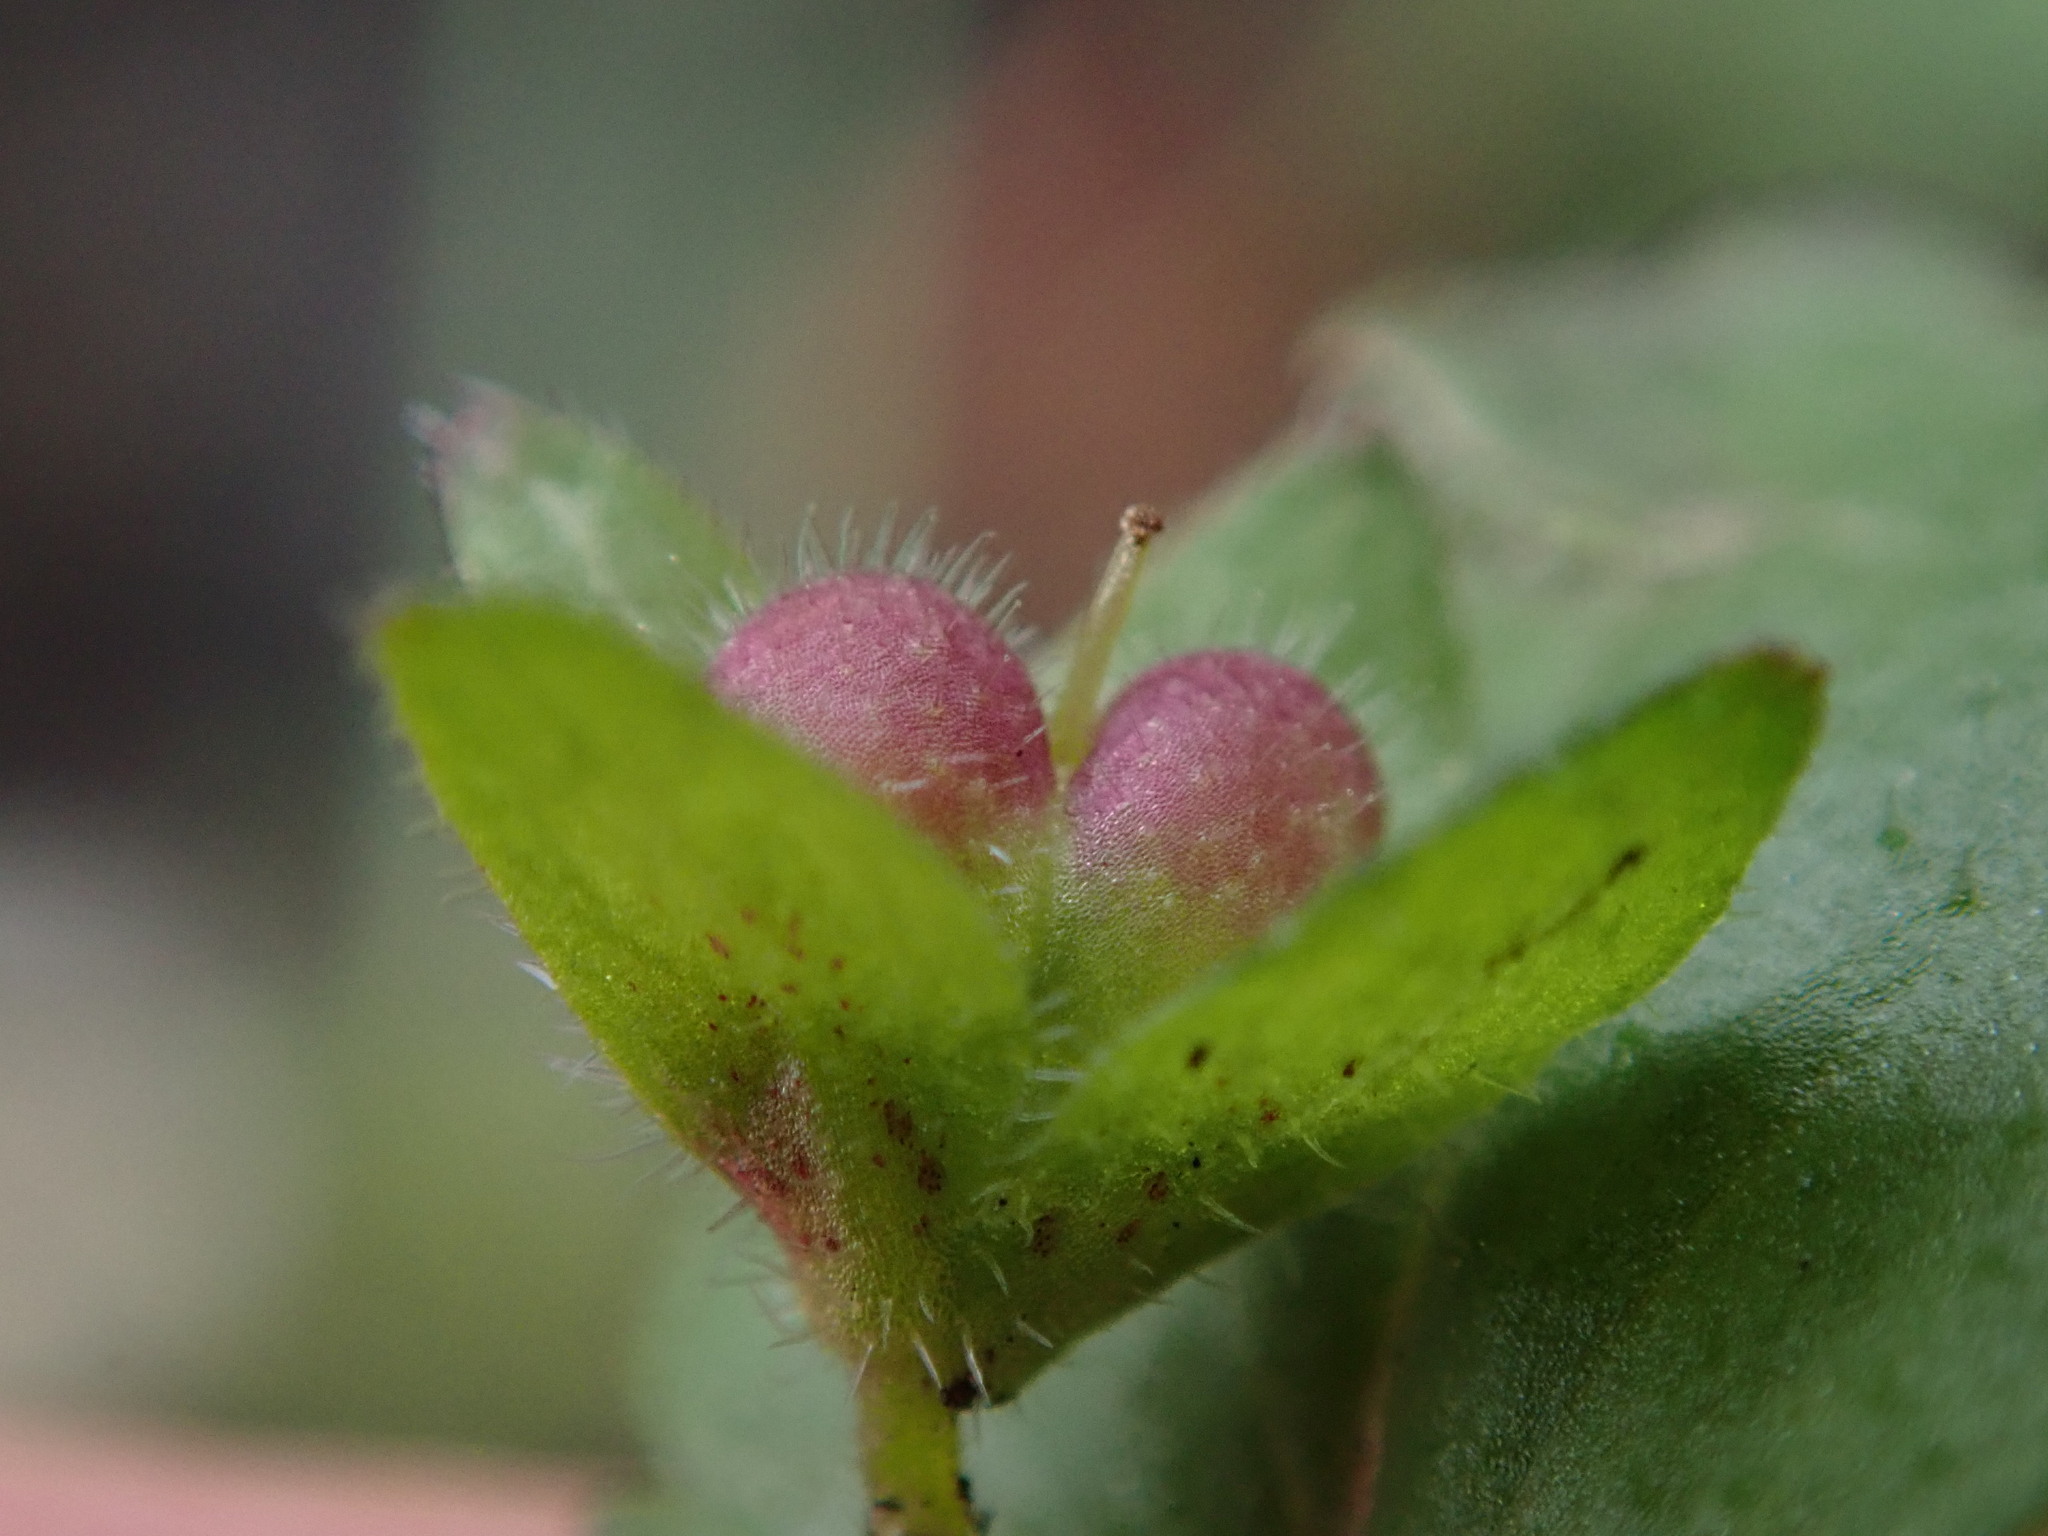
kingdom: Plantae
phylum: Tracheophyta
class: Magnoliopsida
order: Lamiales
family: Plantaginaceae
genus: Veronica
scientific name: Veronica agrestis
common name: Green field-speedwell
